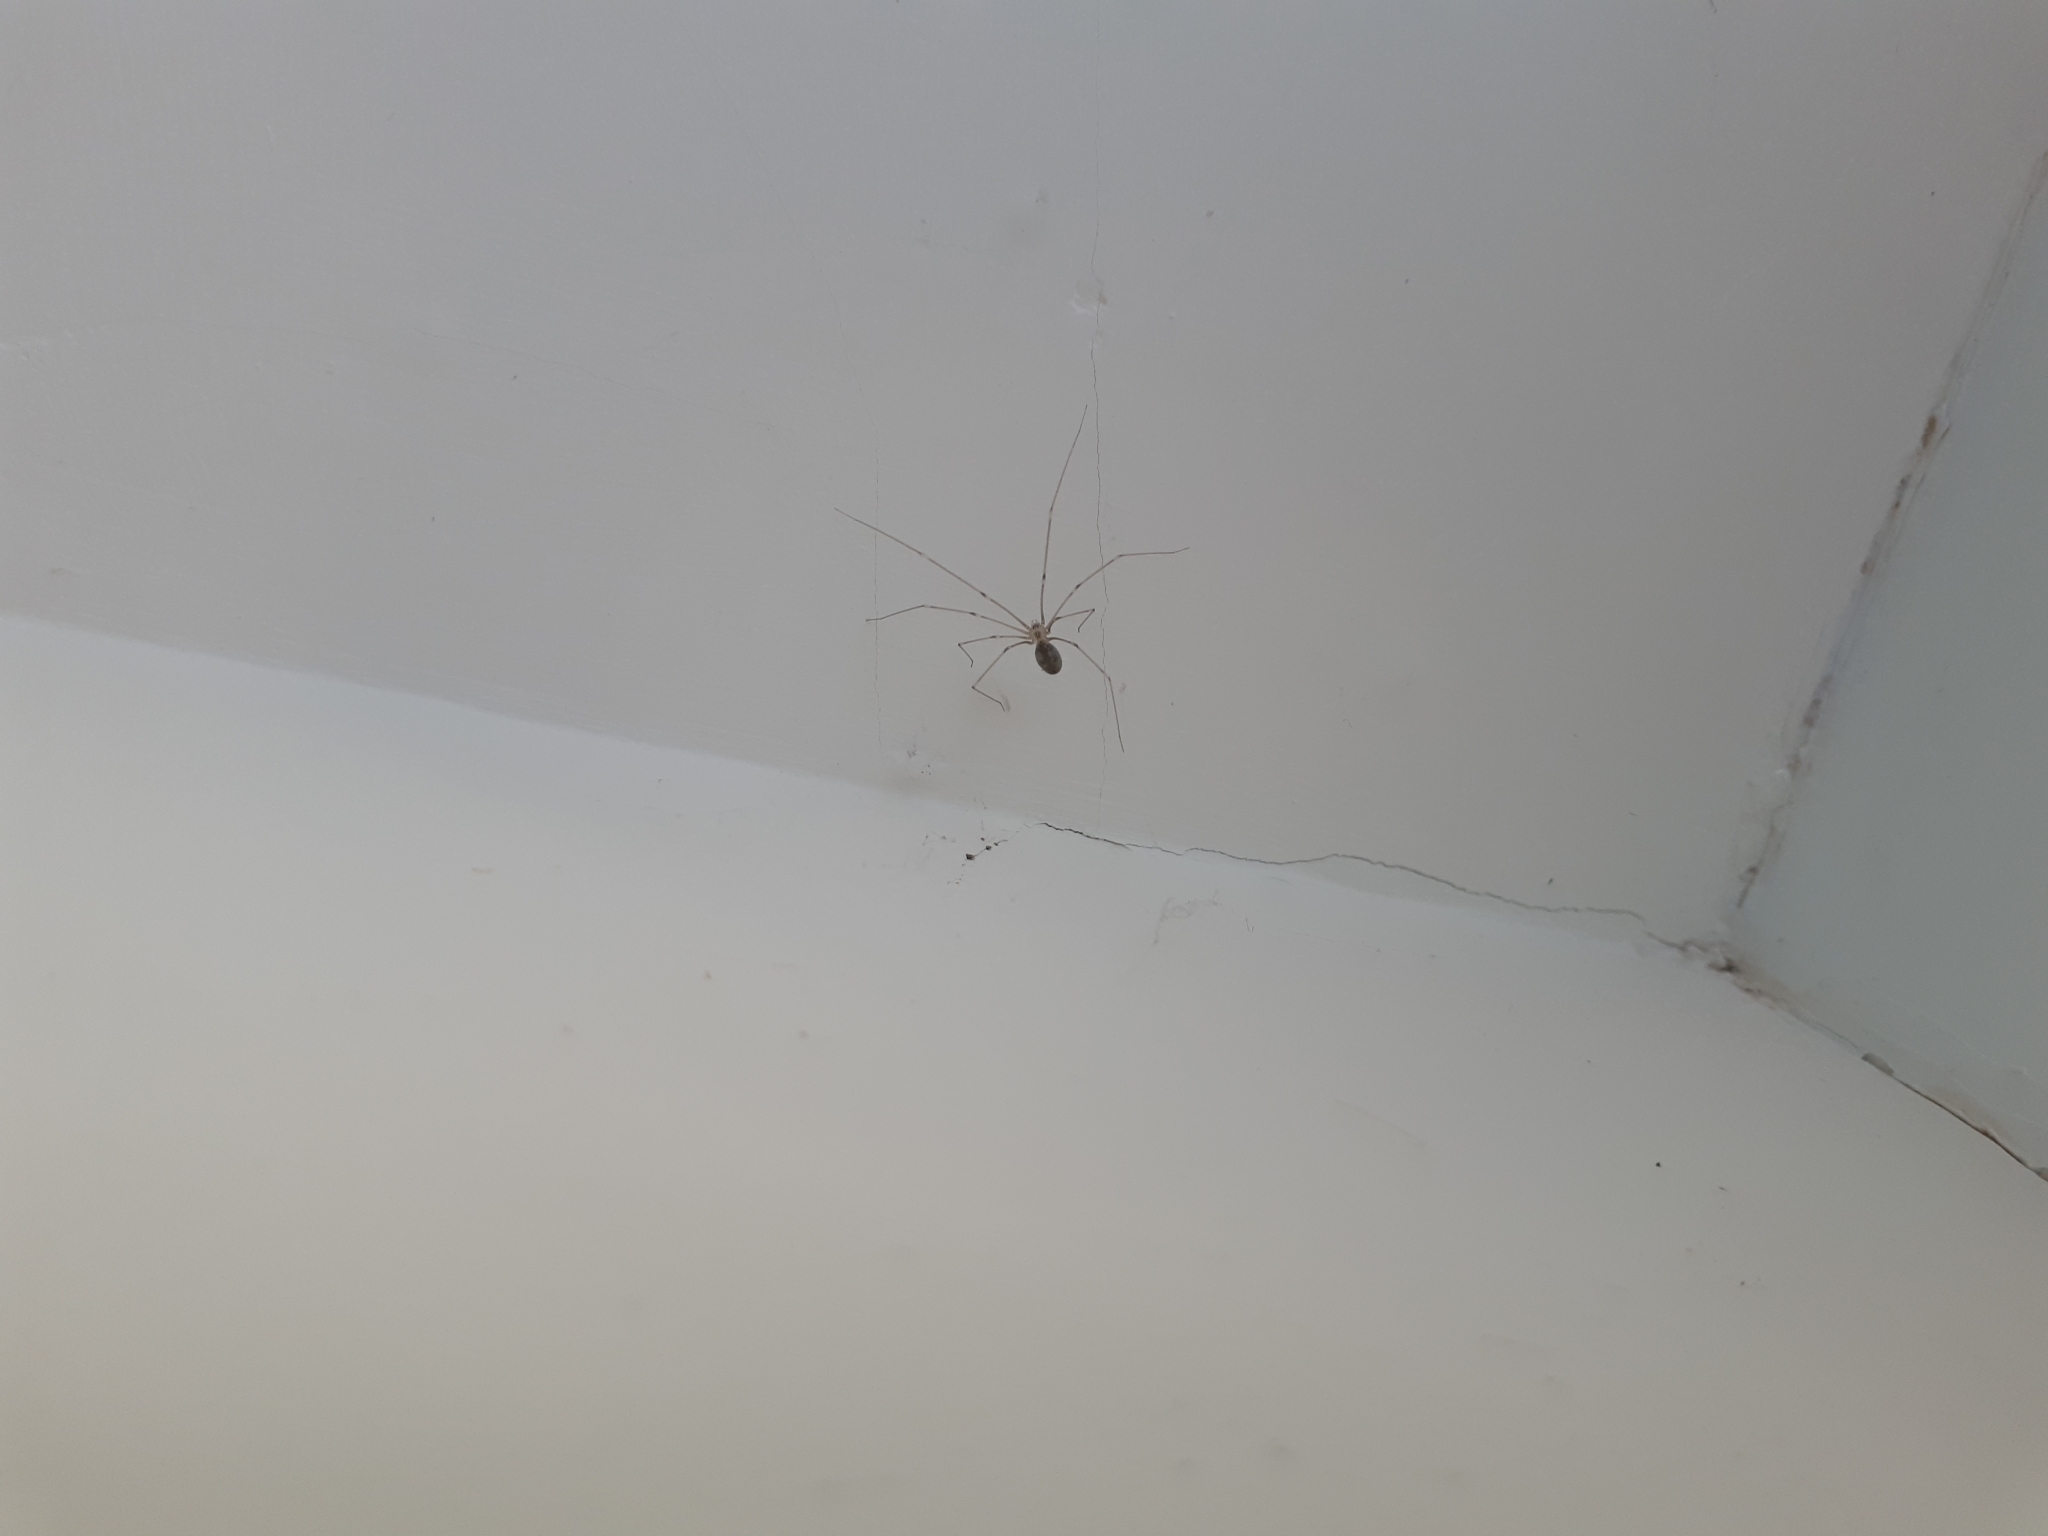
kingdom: Animalia
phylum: Arthropoda
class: Arachnida
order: Araneae
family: Pholcidae
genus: Pholcus
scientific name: Pholcus phalangioides
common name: Longbodied cellar spider
